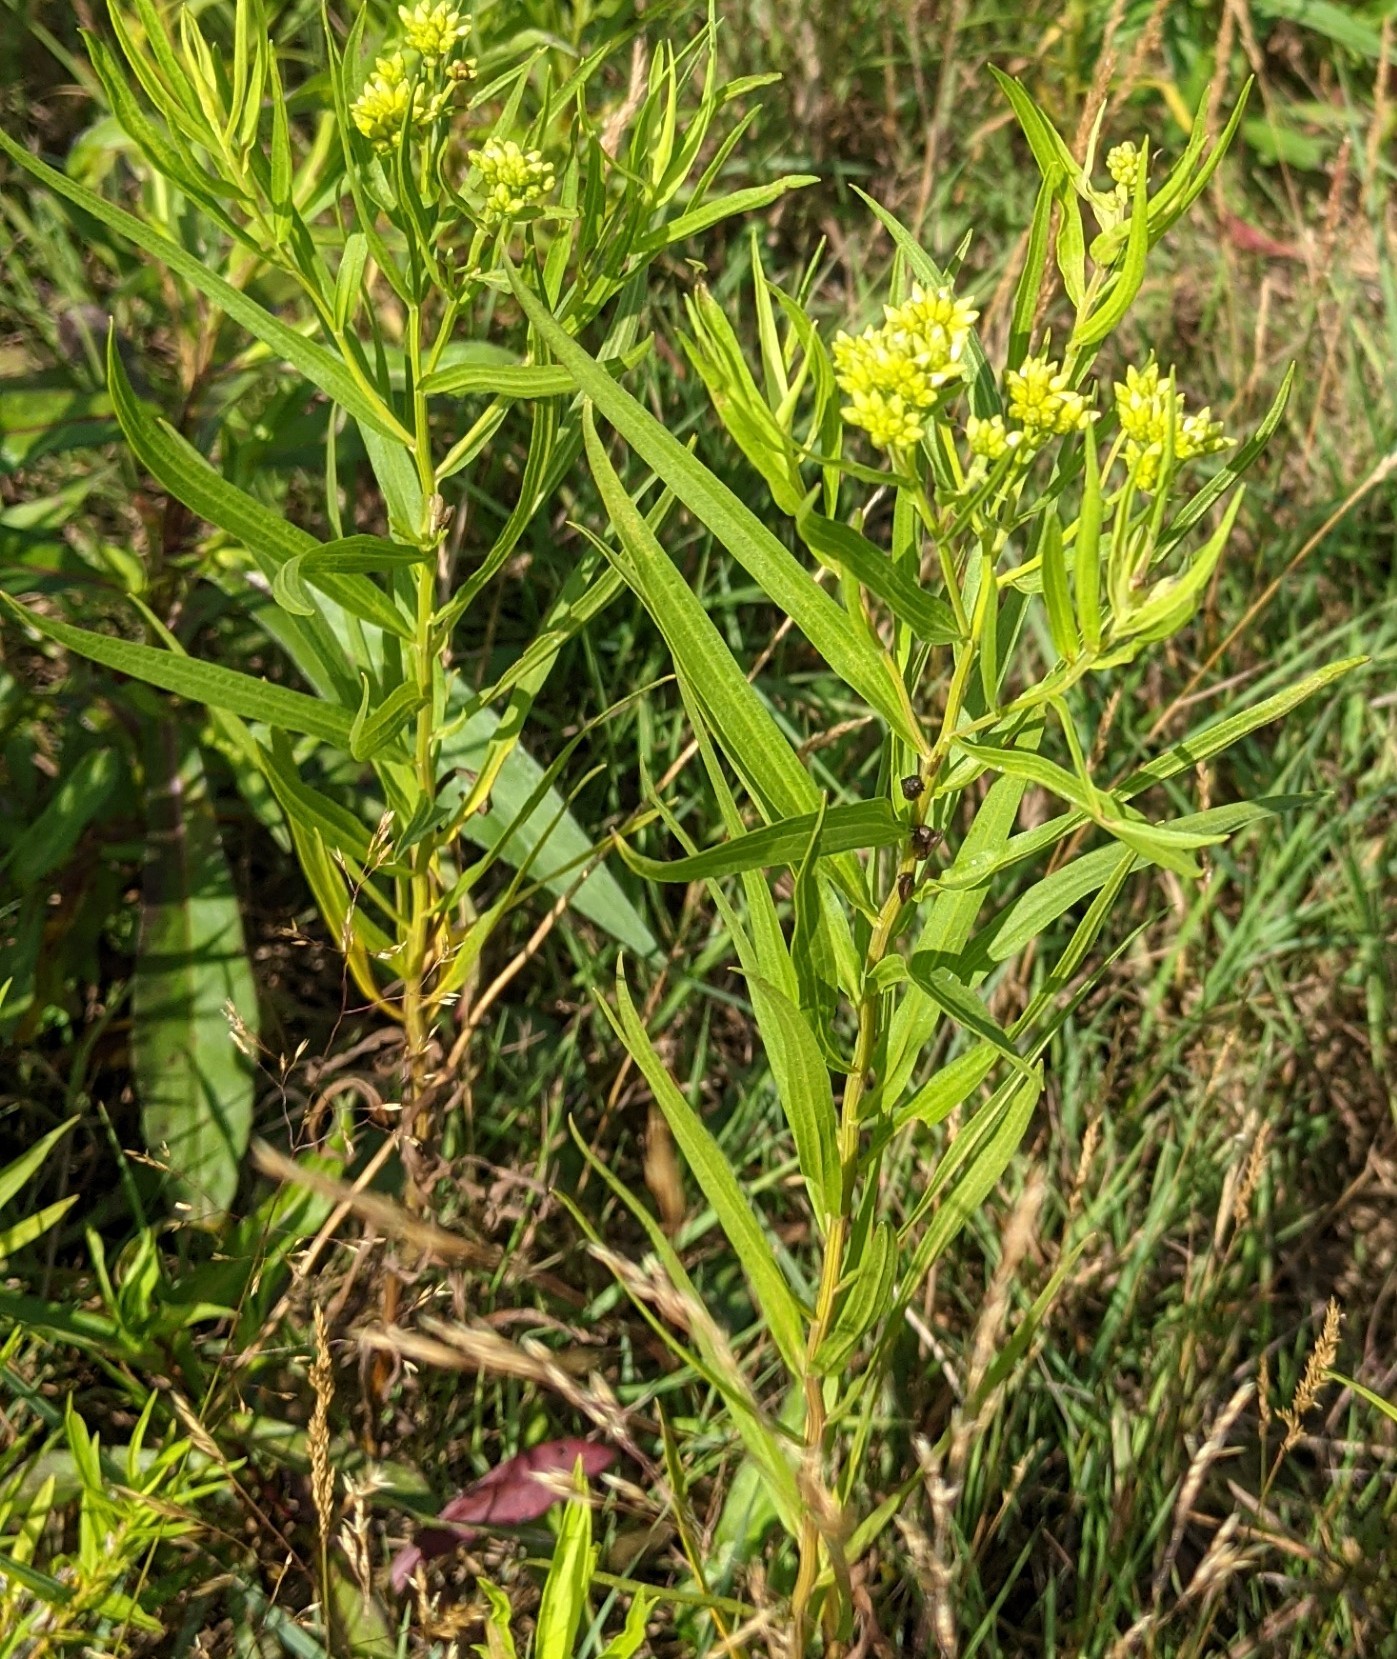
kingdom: Plantae
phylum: Tracheophyta
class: Magnoliopsida
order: Asterales
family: Asteraceae
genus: Euthamia
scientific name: Euthamia graminifolia
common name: Common goldentop
